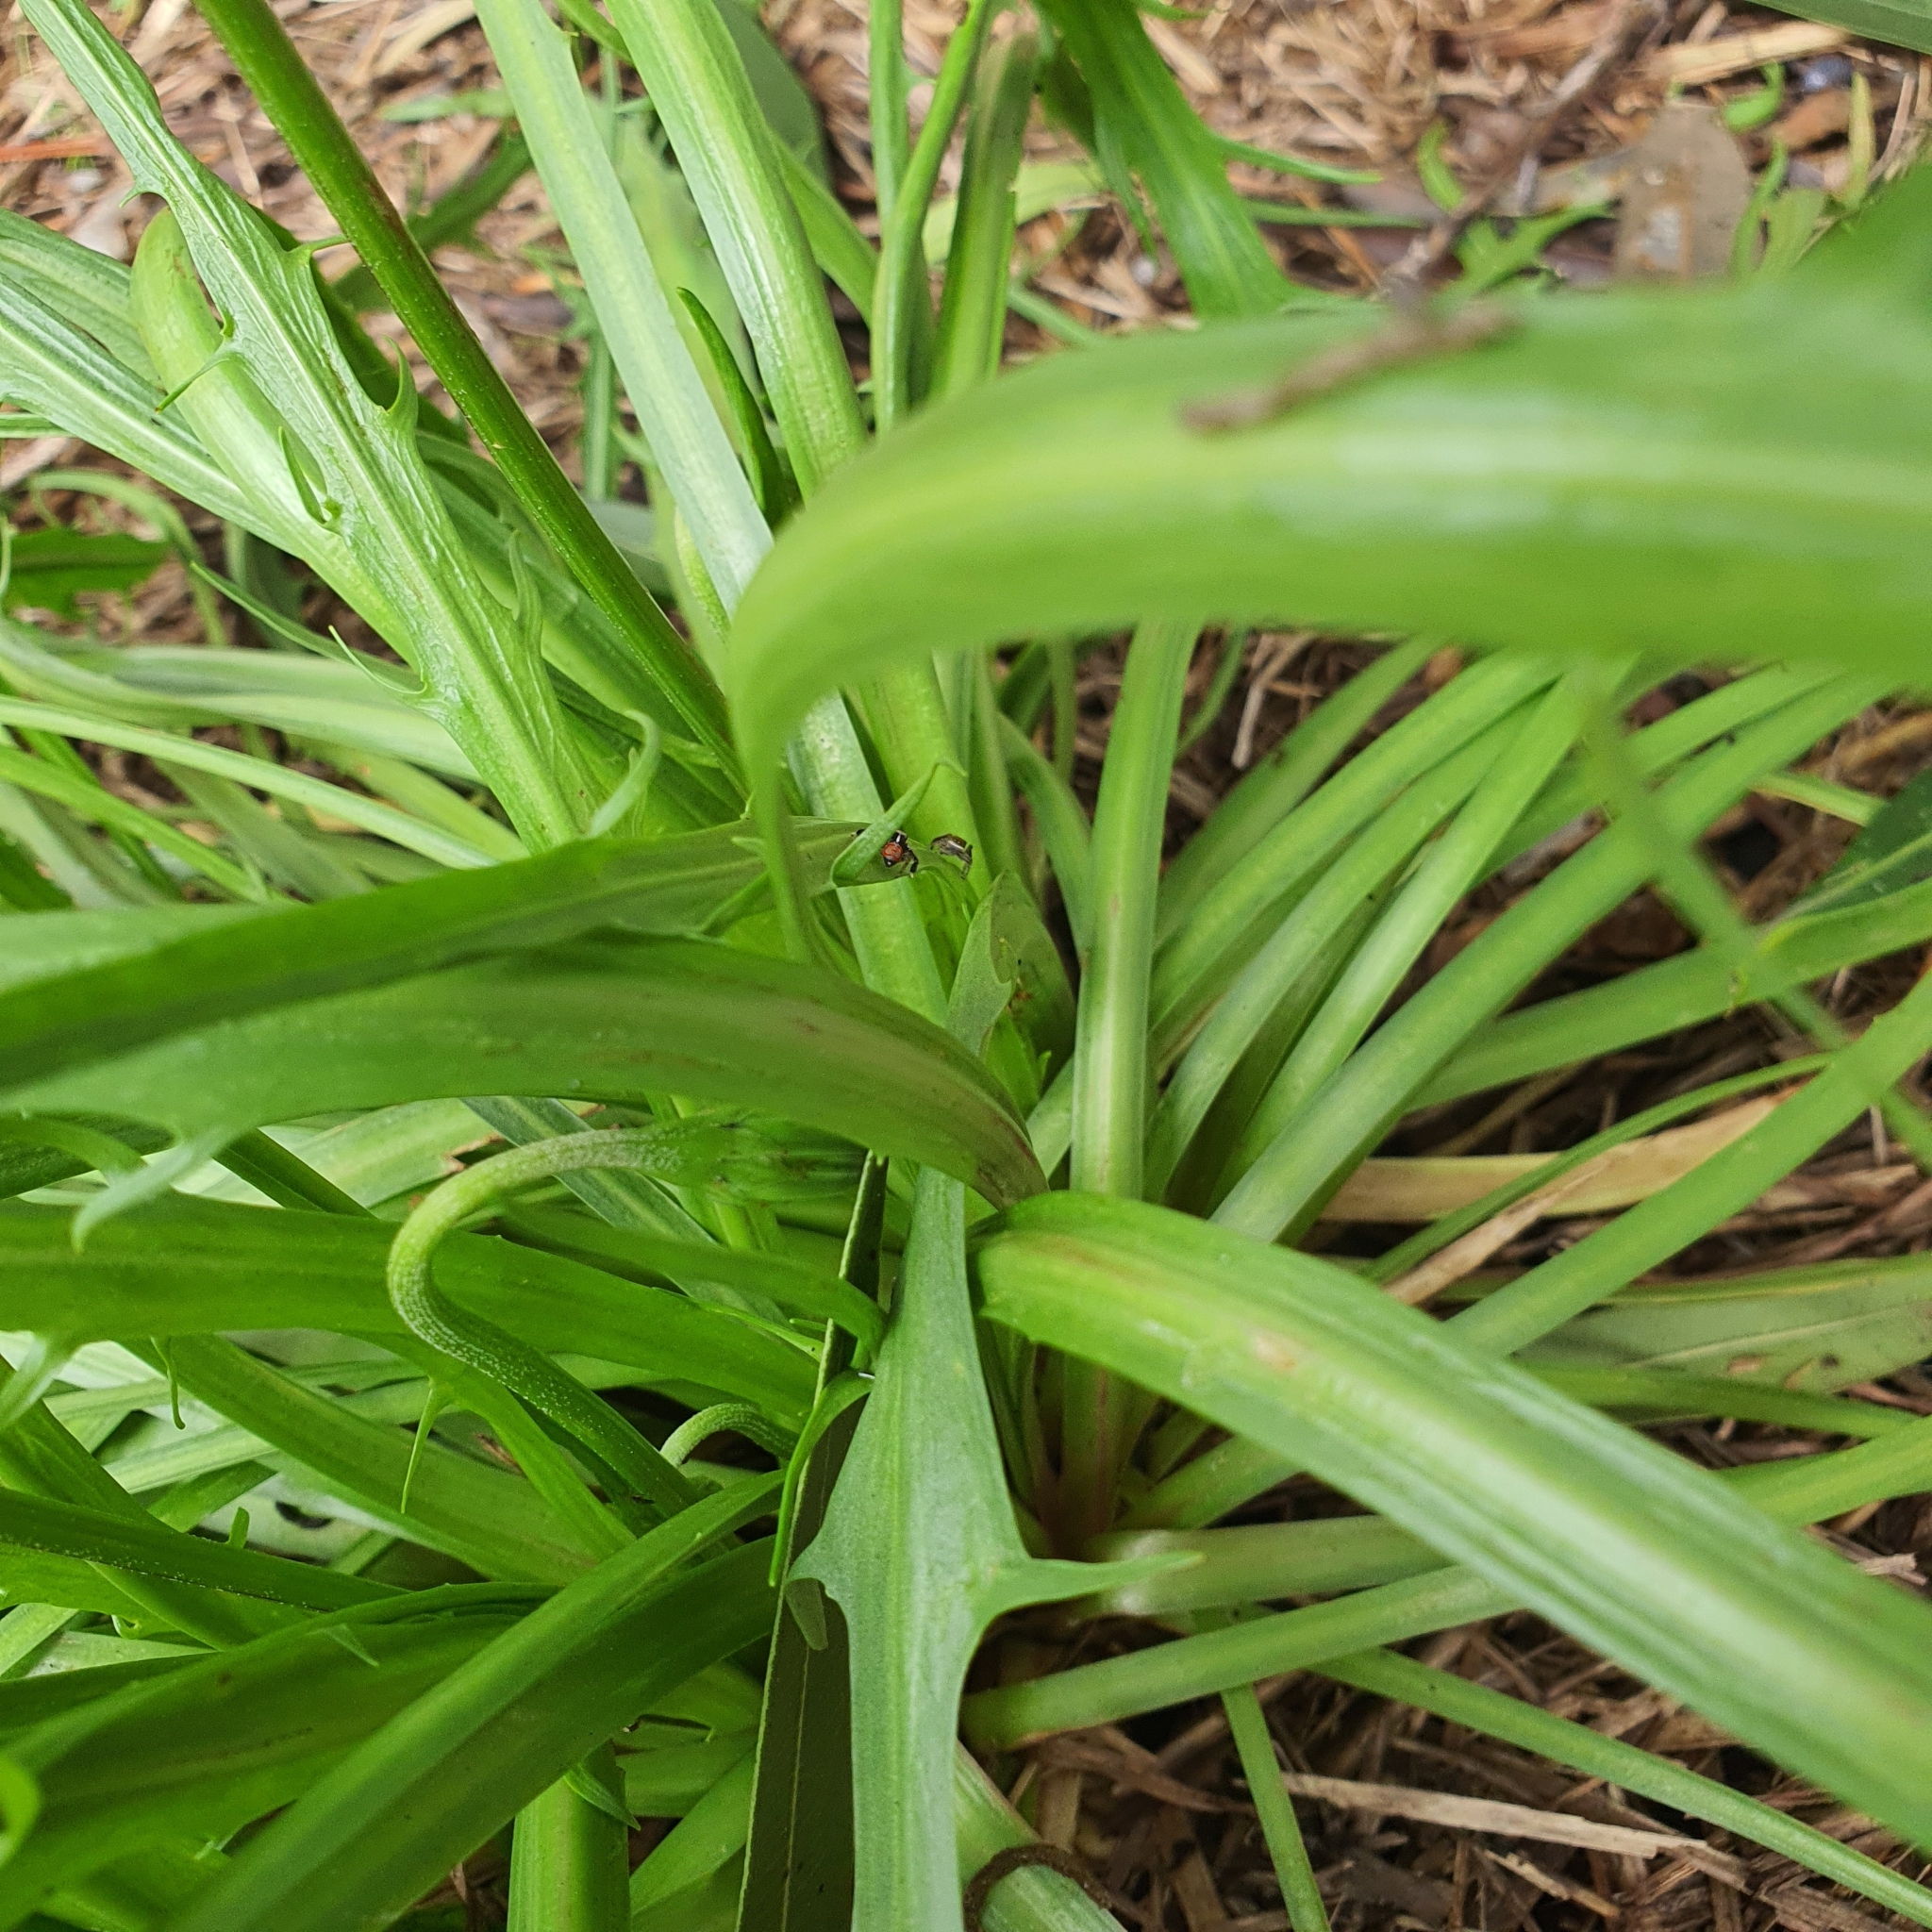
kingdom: Animalia
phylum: Arthropoda
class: Arachnida
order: Araneae
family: Salticidae
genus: Maratus
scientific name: Maratus pavonis
